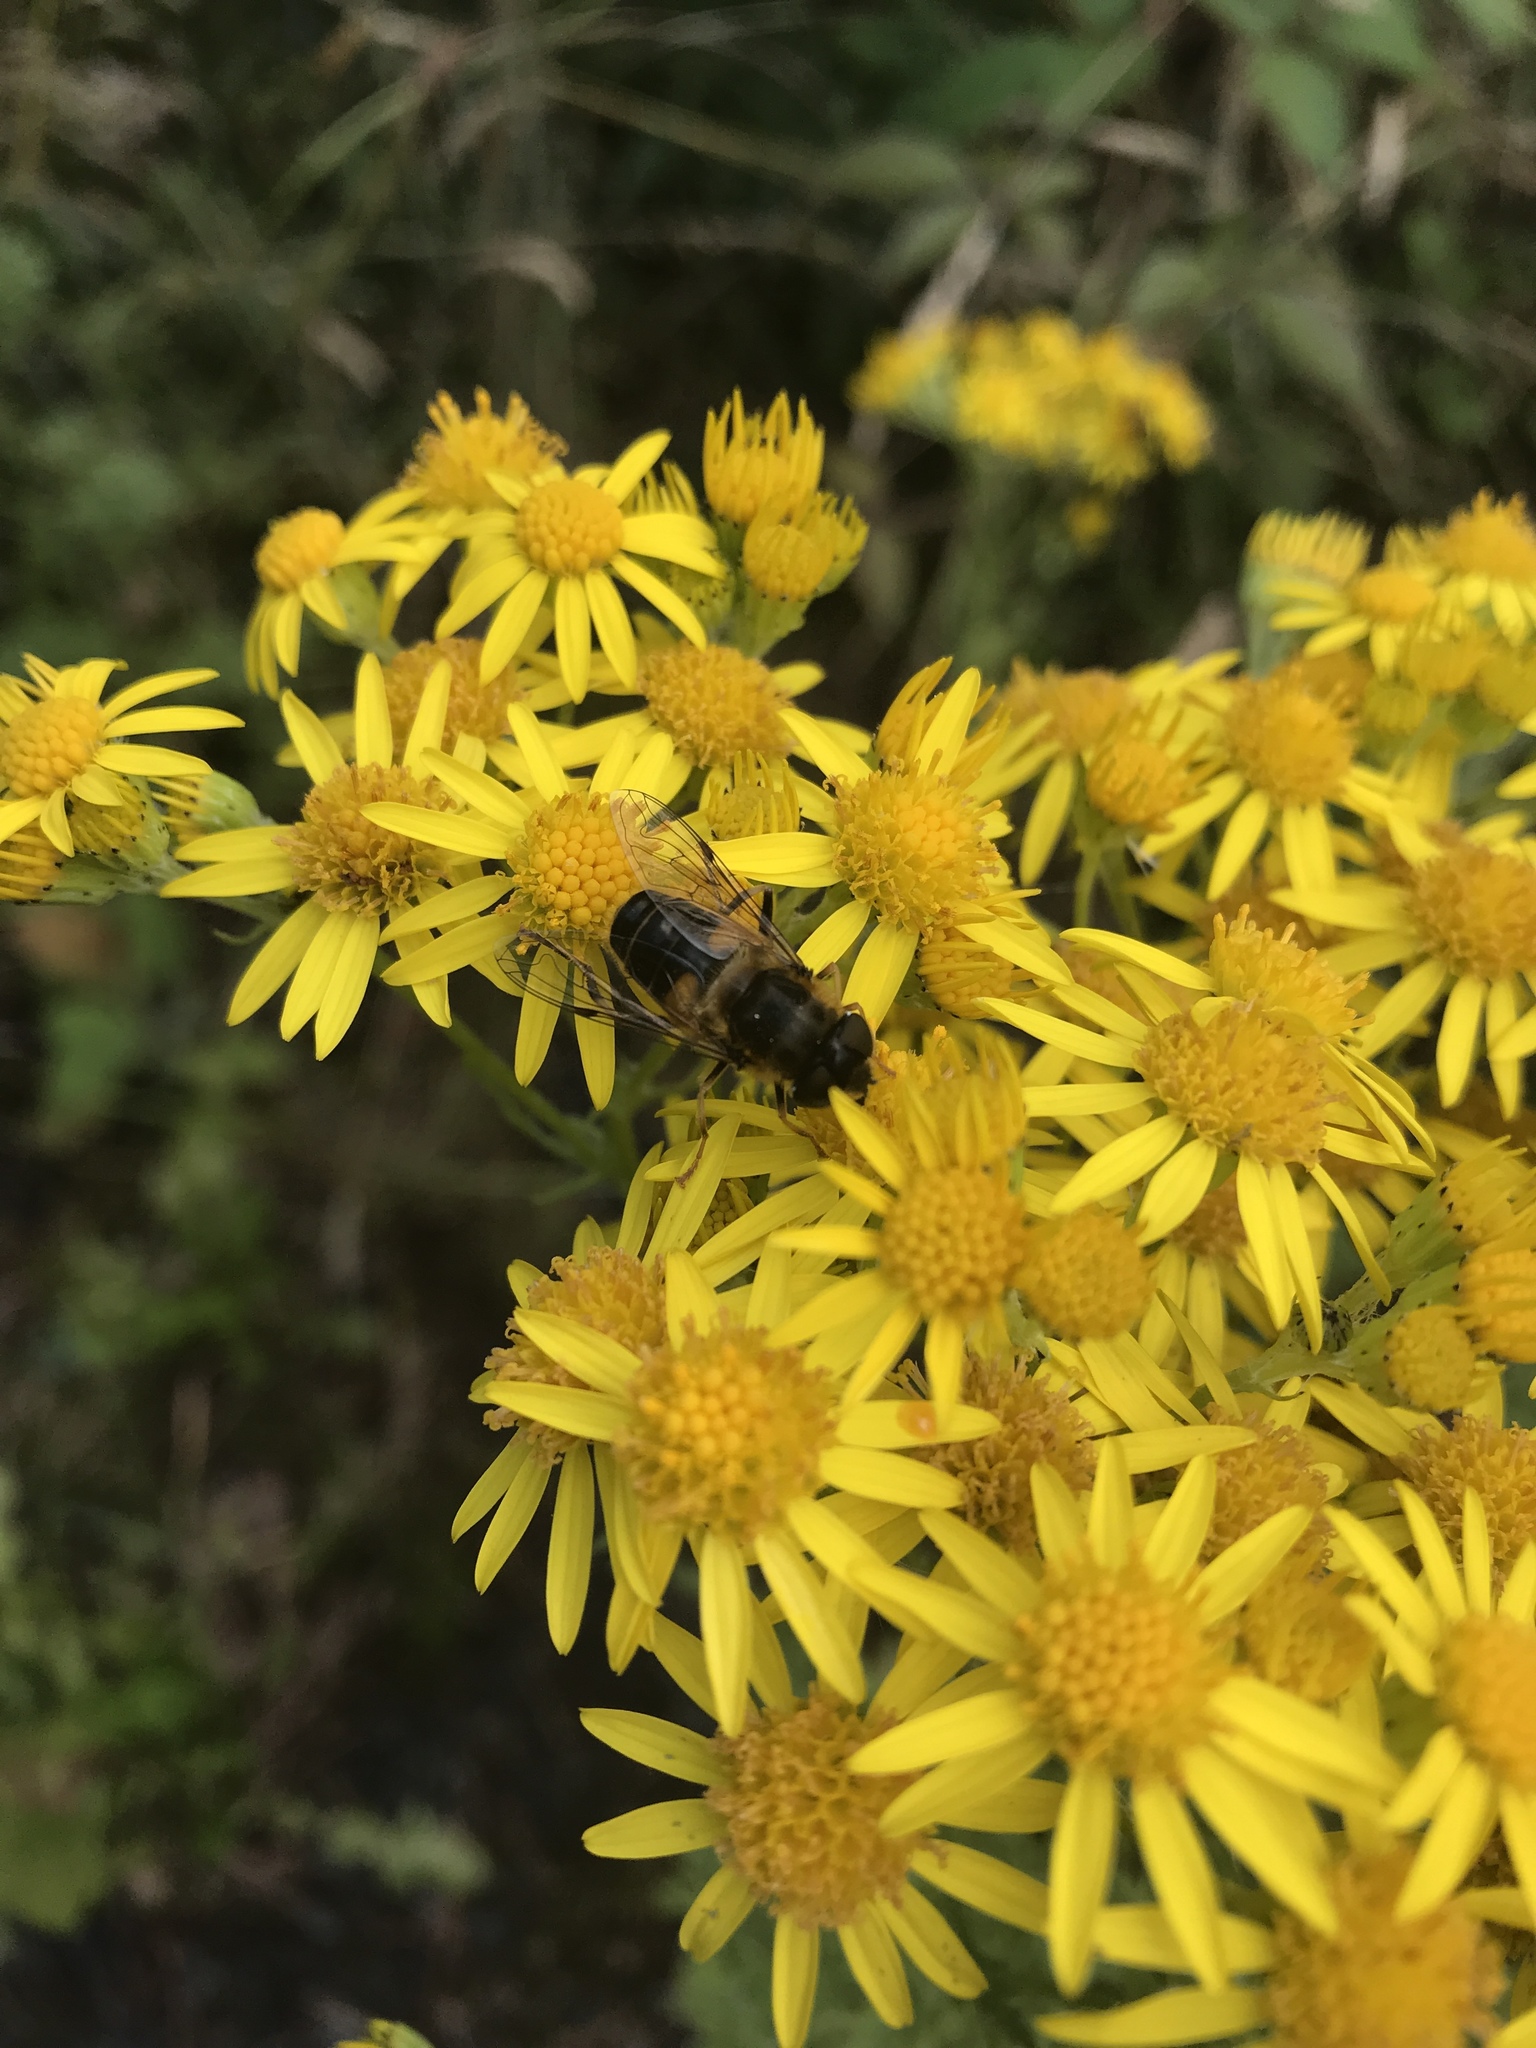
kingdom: Animalia
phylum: Arthropoda
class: Insecta
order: Diptera
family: Syrphidae
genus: Eristalis
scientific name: Eristalis pertinax
